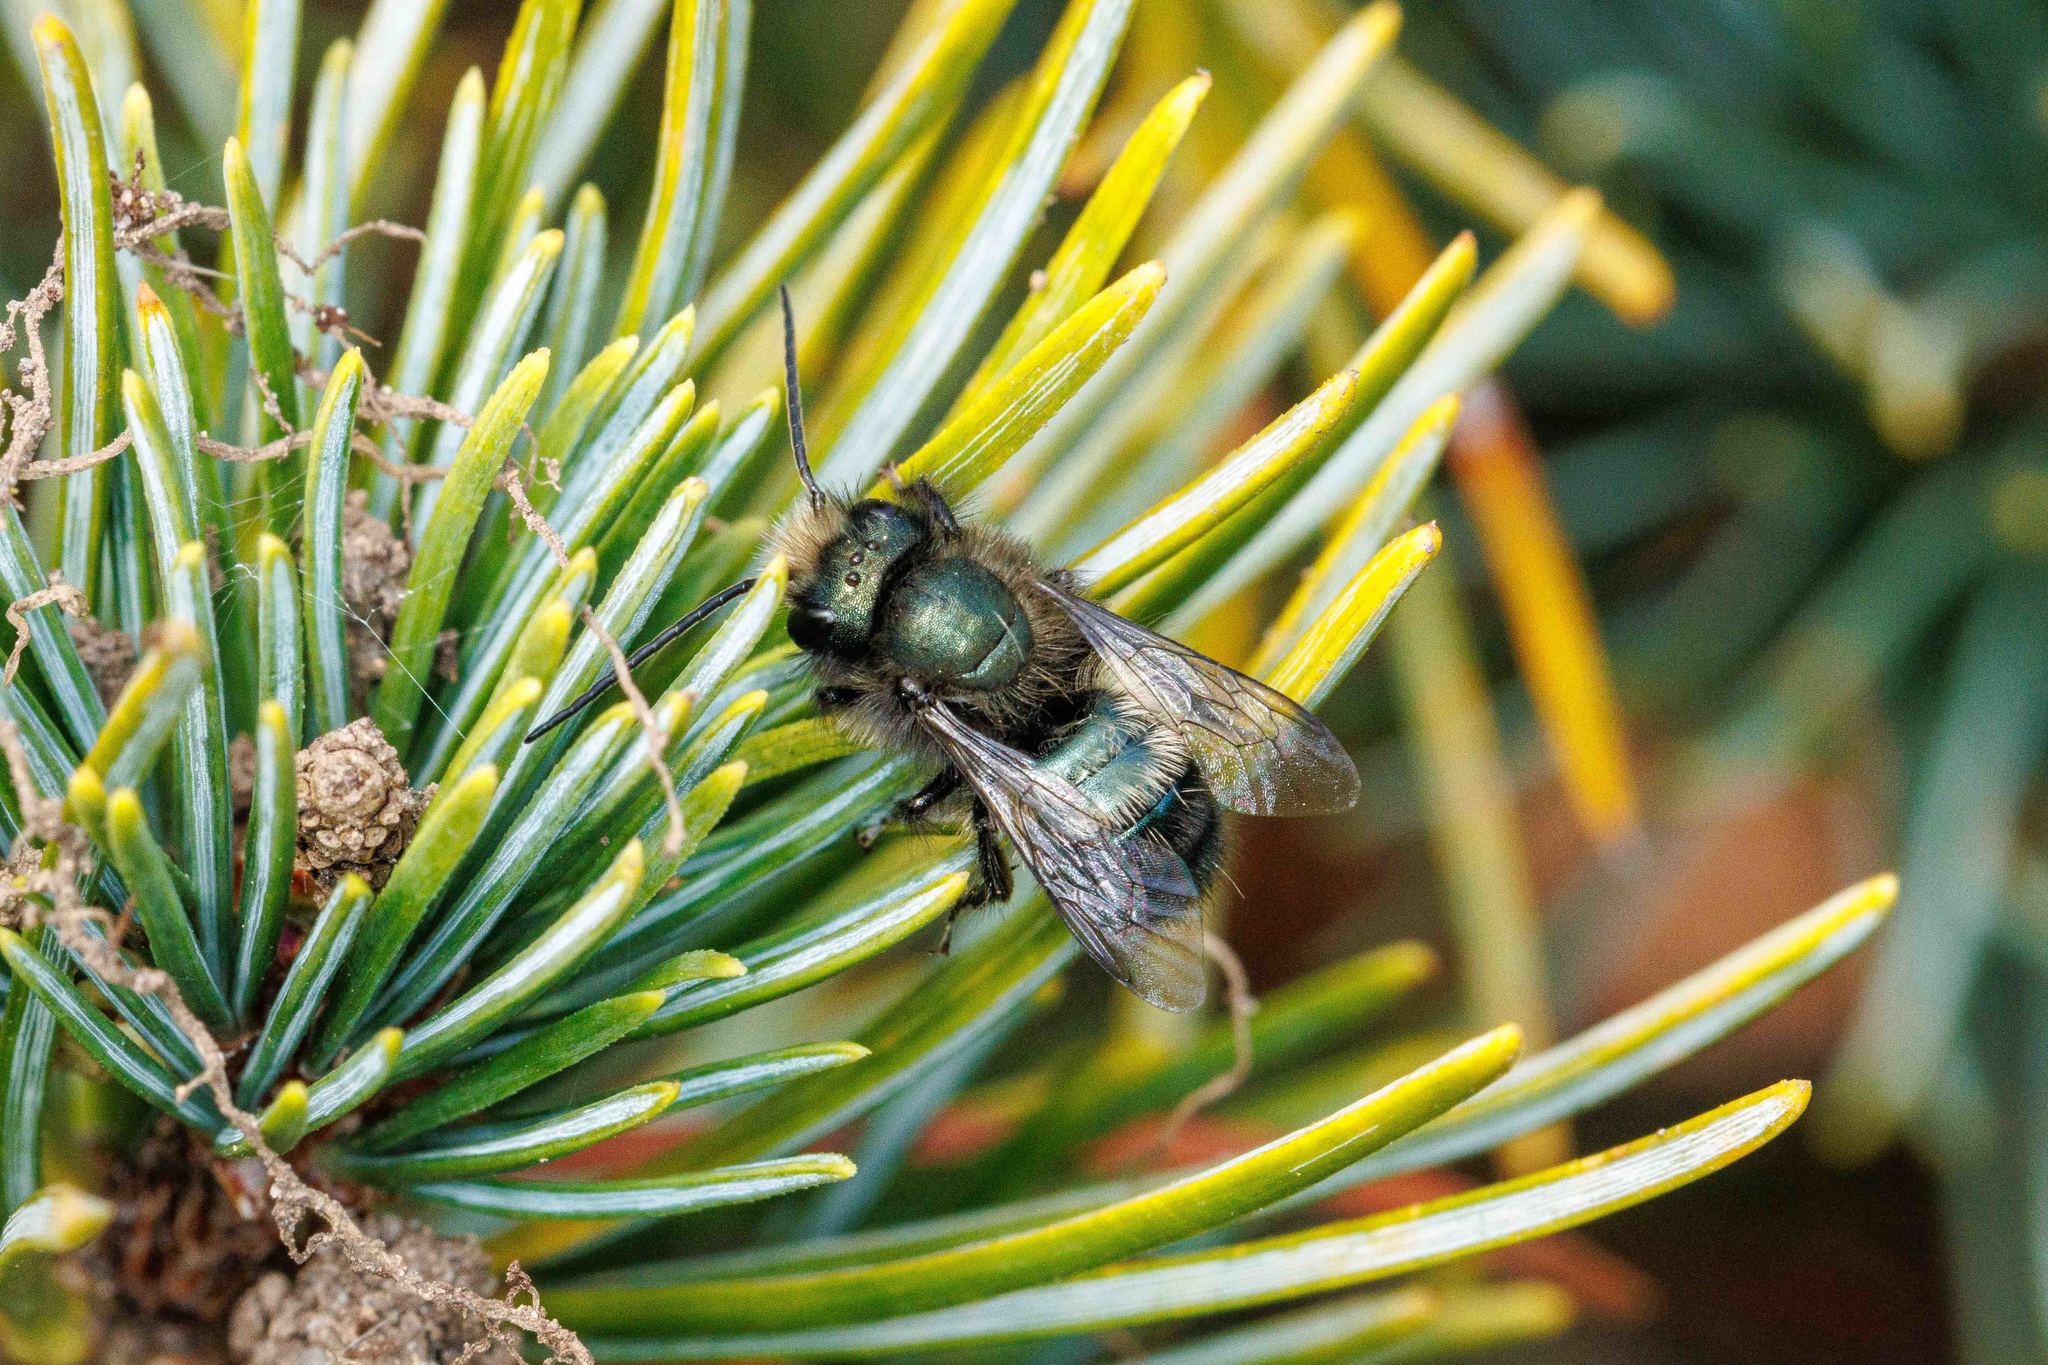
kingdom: Animalia
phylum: Arthropoda
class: Insecta
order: Hymenoptera
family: Megachilidae
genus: Osmia
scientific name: Osmia lignaria
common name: Blue orchard bee
